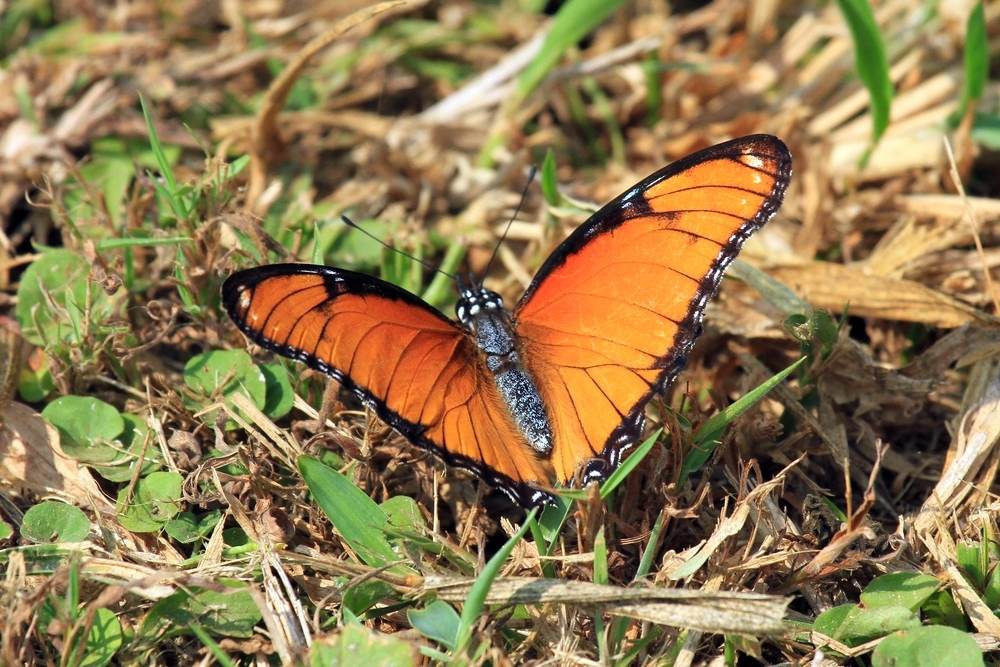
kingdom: Animalia
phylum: Arthropoda
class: Insecta
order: Lepidoptera
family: Nymphalidae
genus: Hypolimnas
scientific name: Hypolimnas misippus
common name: False plain tiger
